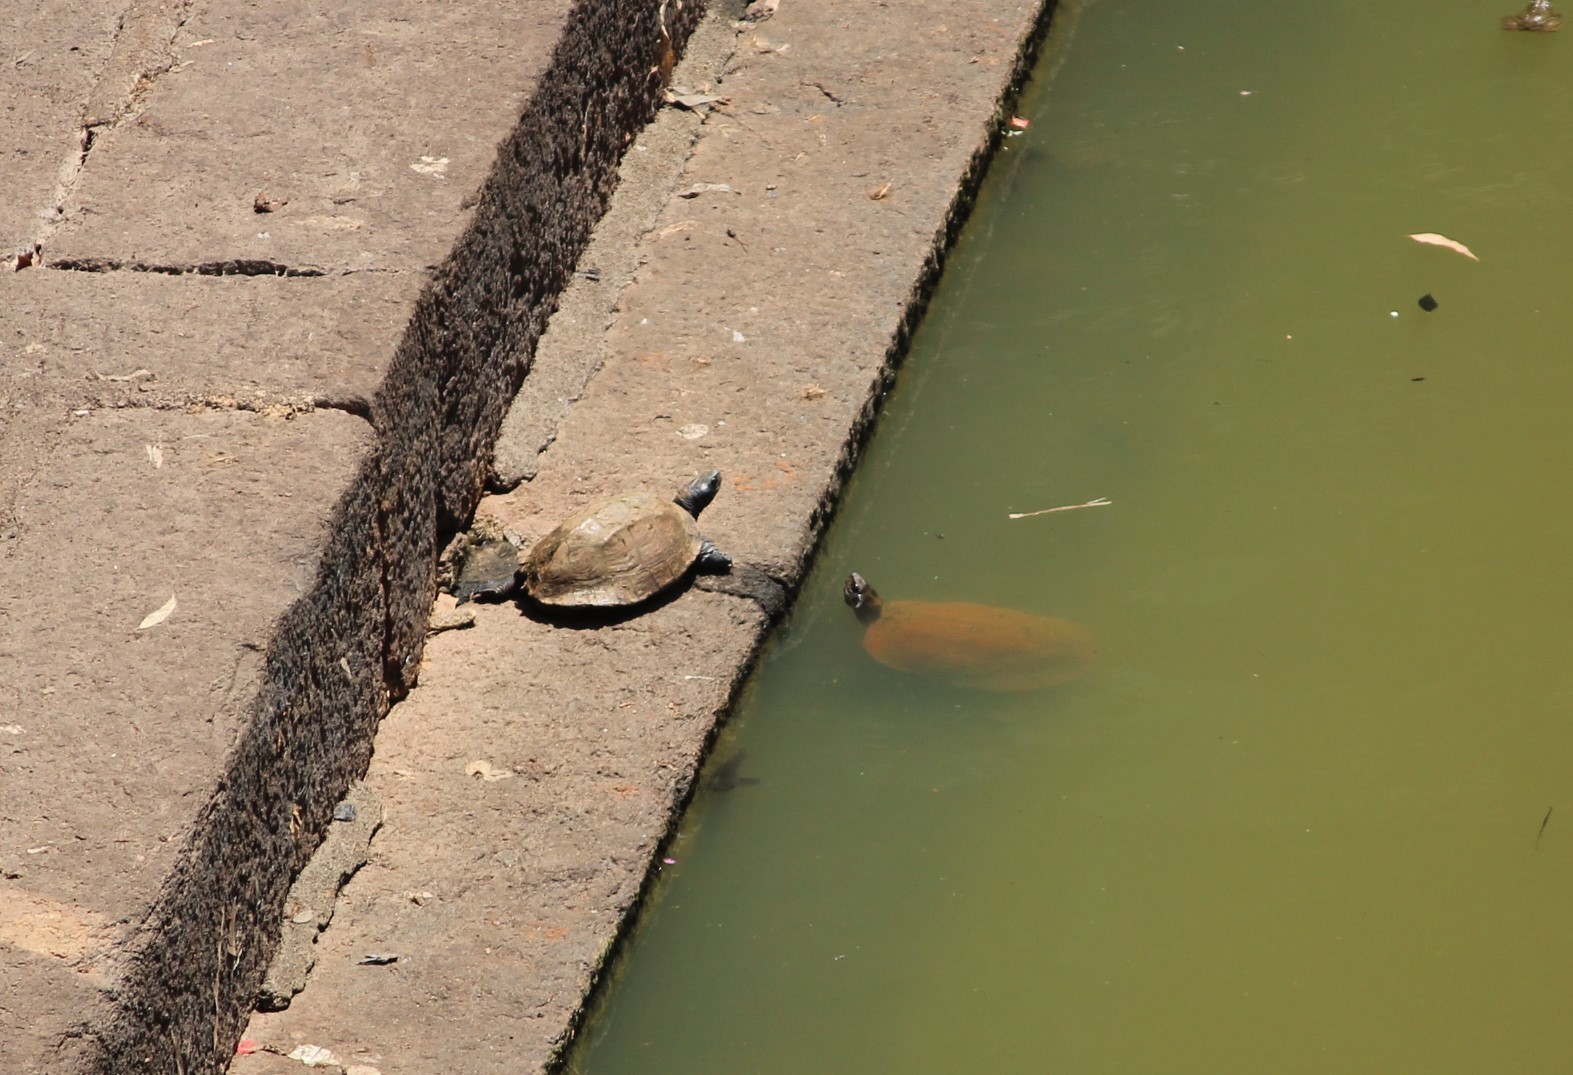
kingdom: Animalia
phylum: Chordata
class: Testudines
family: Geoemydidae
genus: Melanochelys
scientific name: Melanochelys trijuga
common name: Indian black turtle
